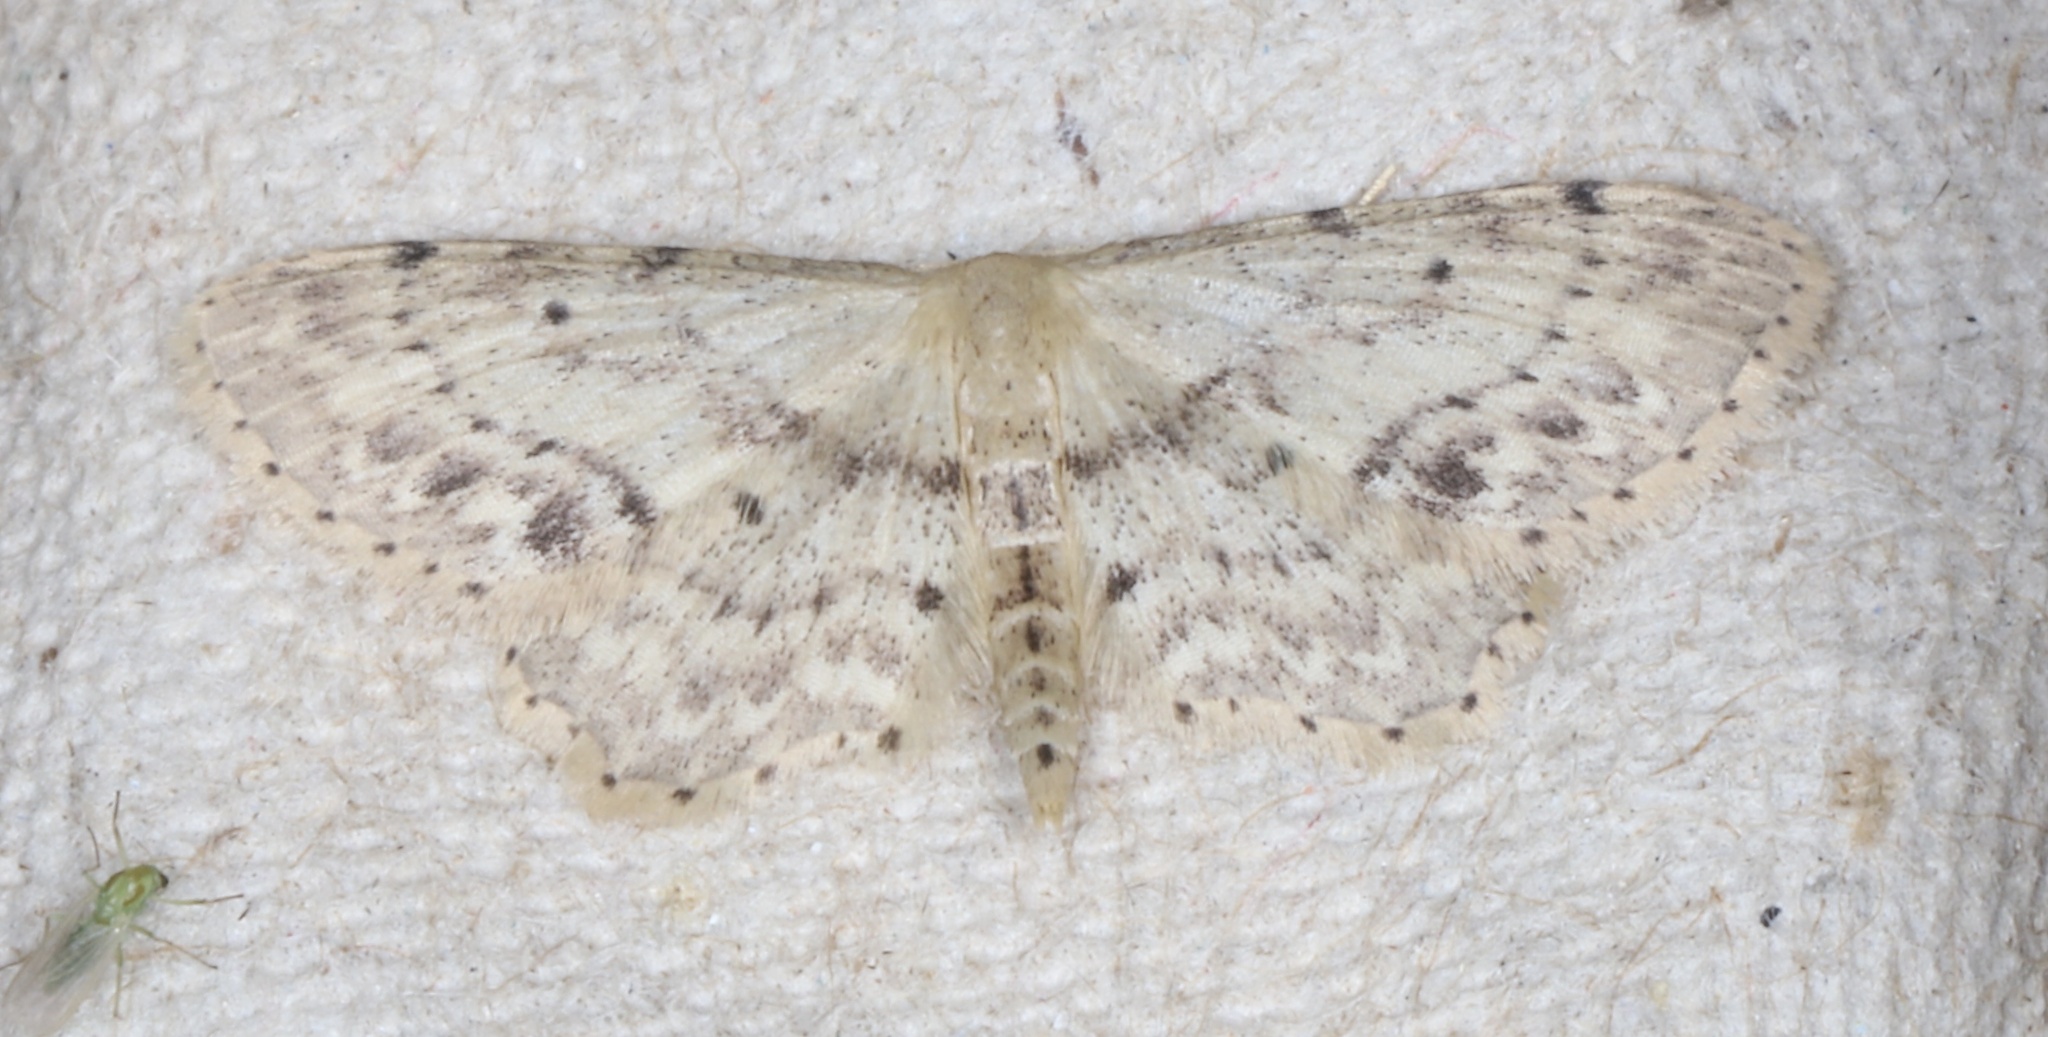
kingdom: Animalia
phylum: Arthropoda
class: Insecta
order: Lepidoptera
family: Geometridae
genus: Idaea
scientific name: Idaea dimidiata
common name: Single-dotted wave
